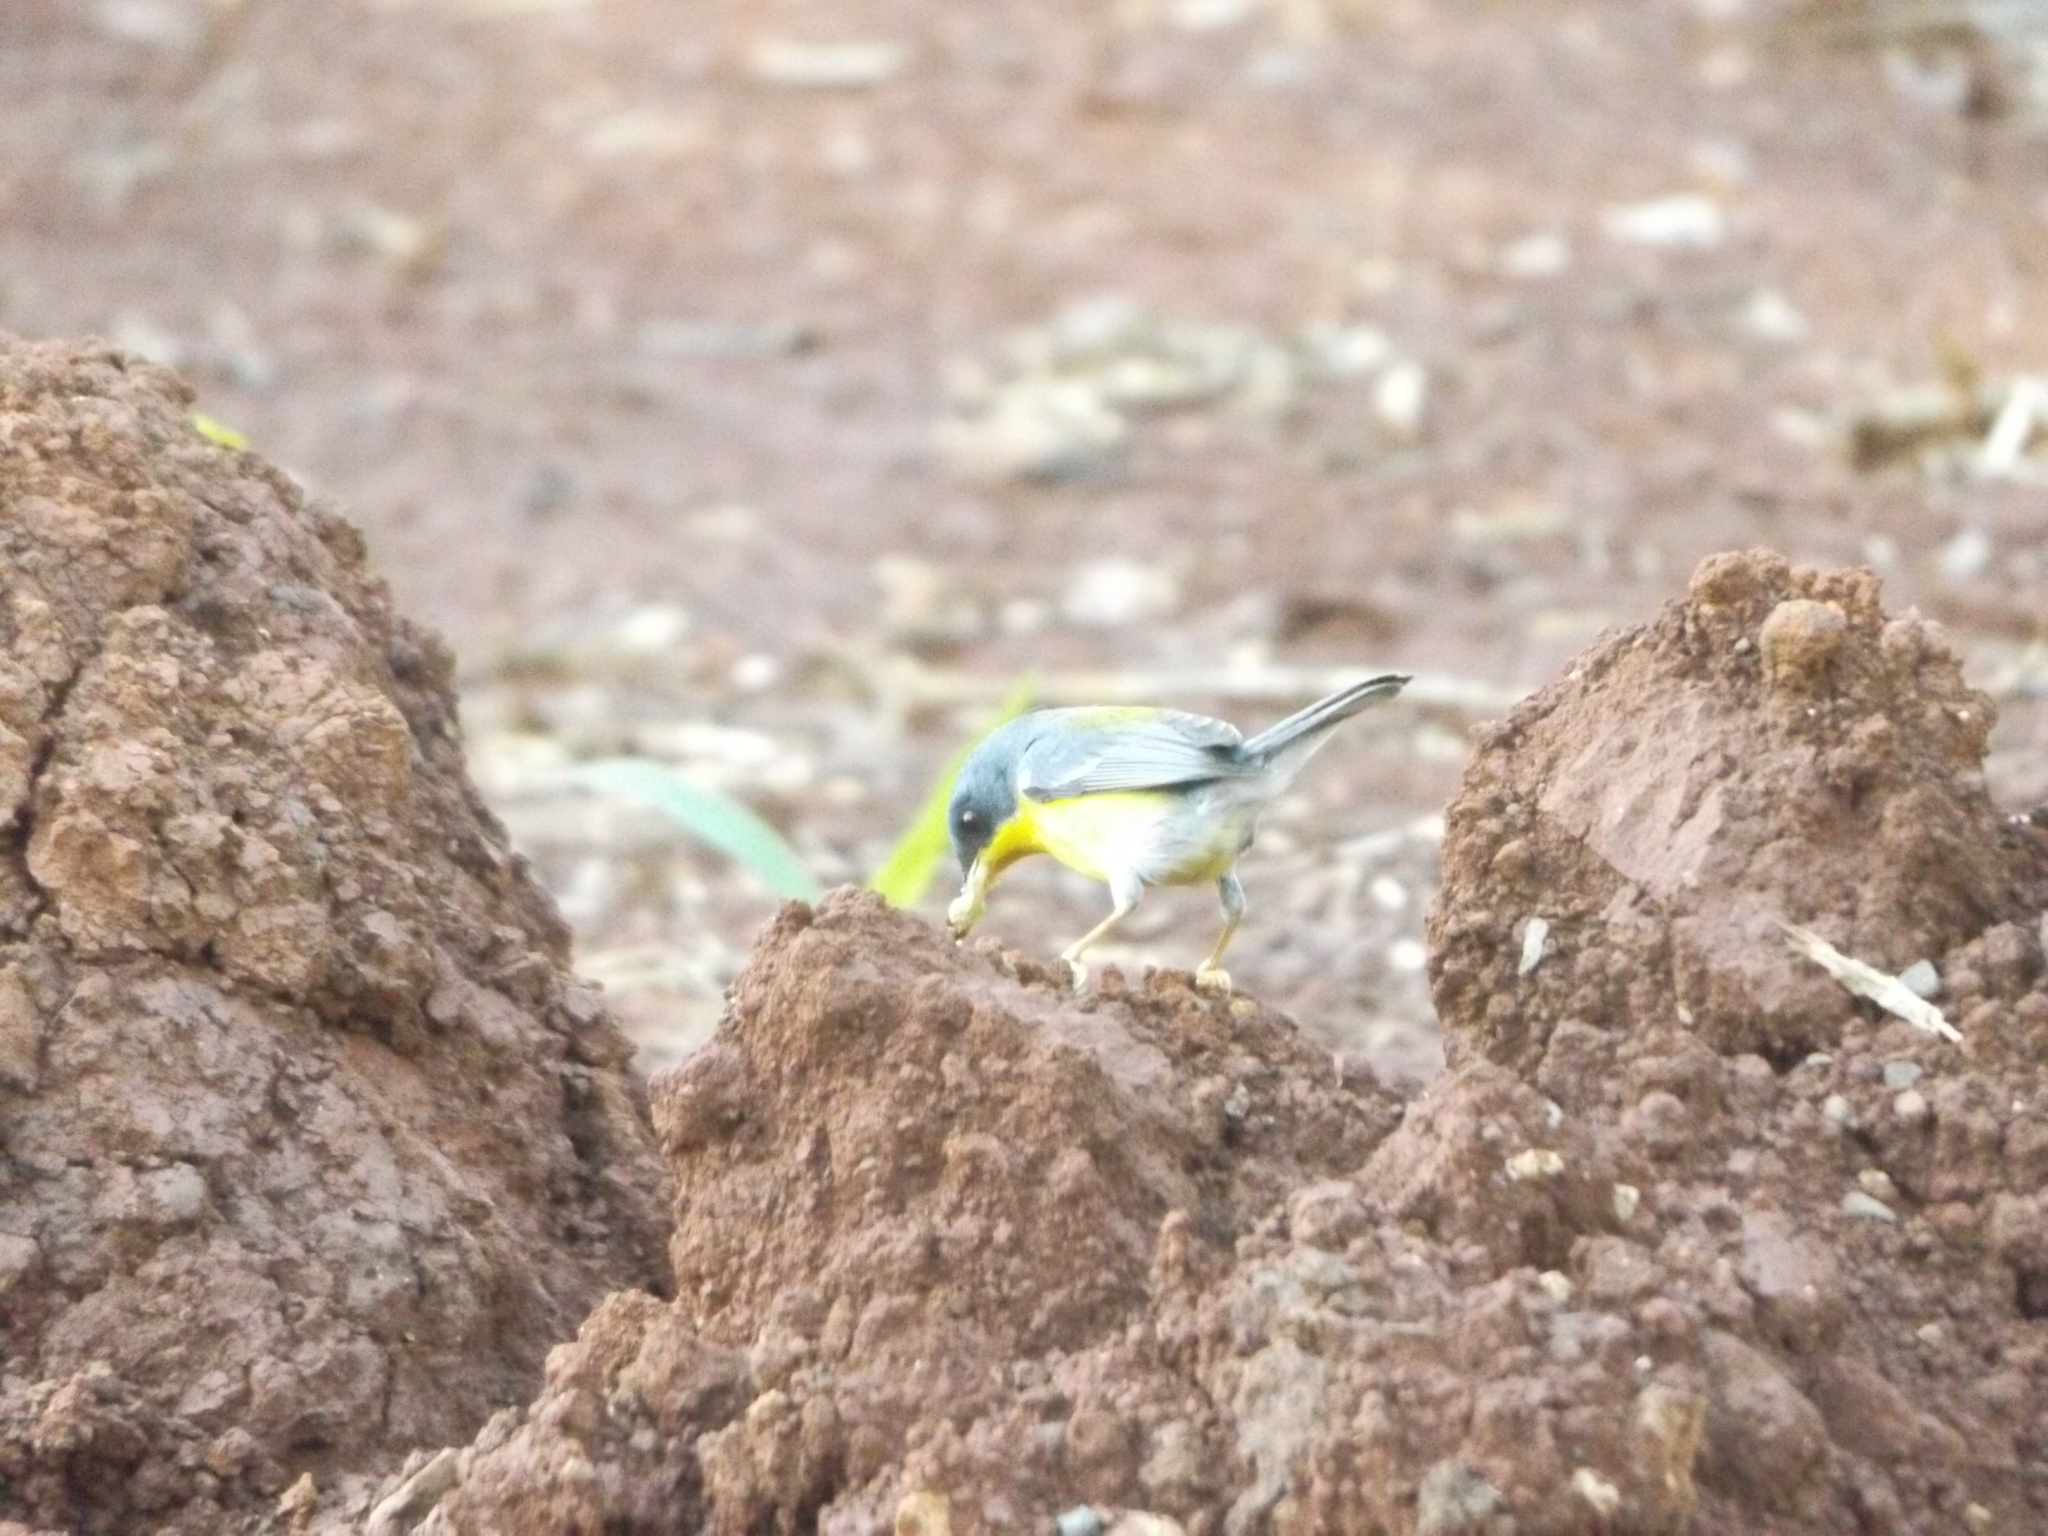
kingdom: Animalia
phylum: Chordata
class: Aves
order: Passeriformes
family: Parulidae
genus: Setophaga
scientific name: Setophaga pitiayumi
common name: Tropical parula
